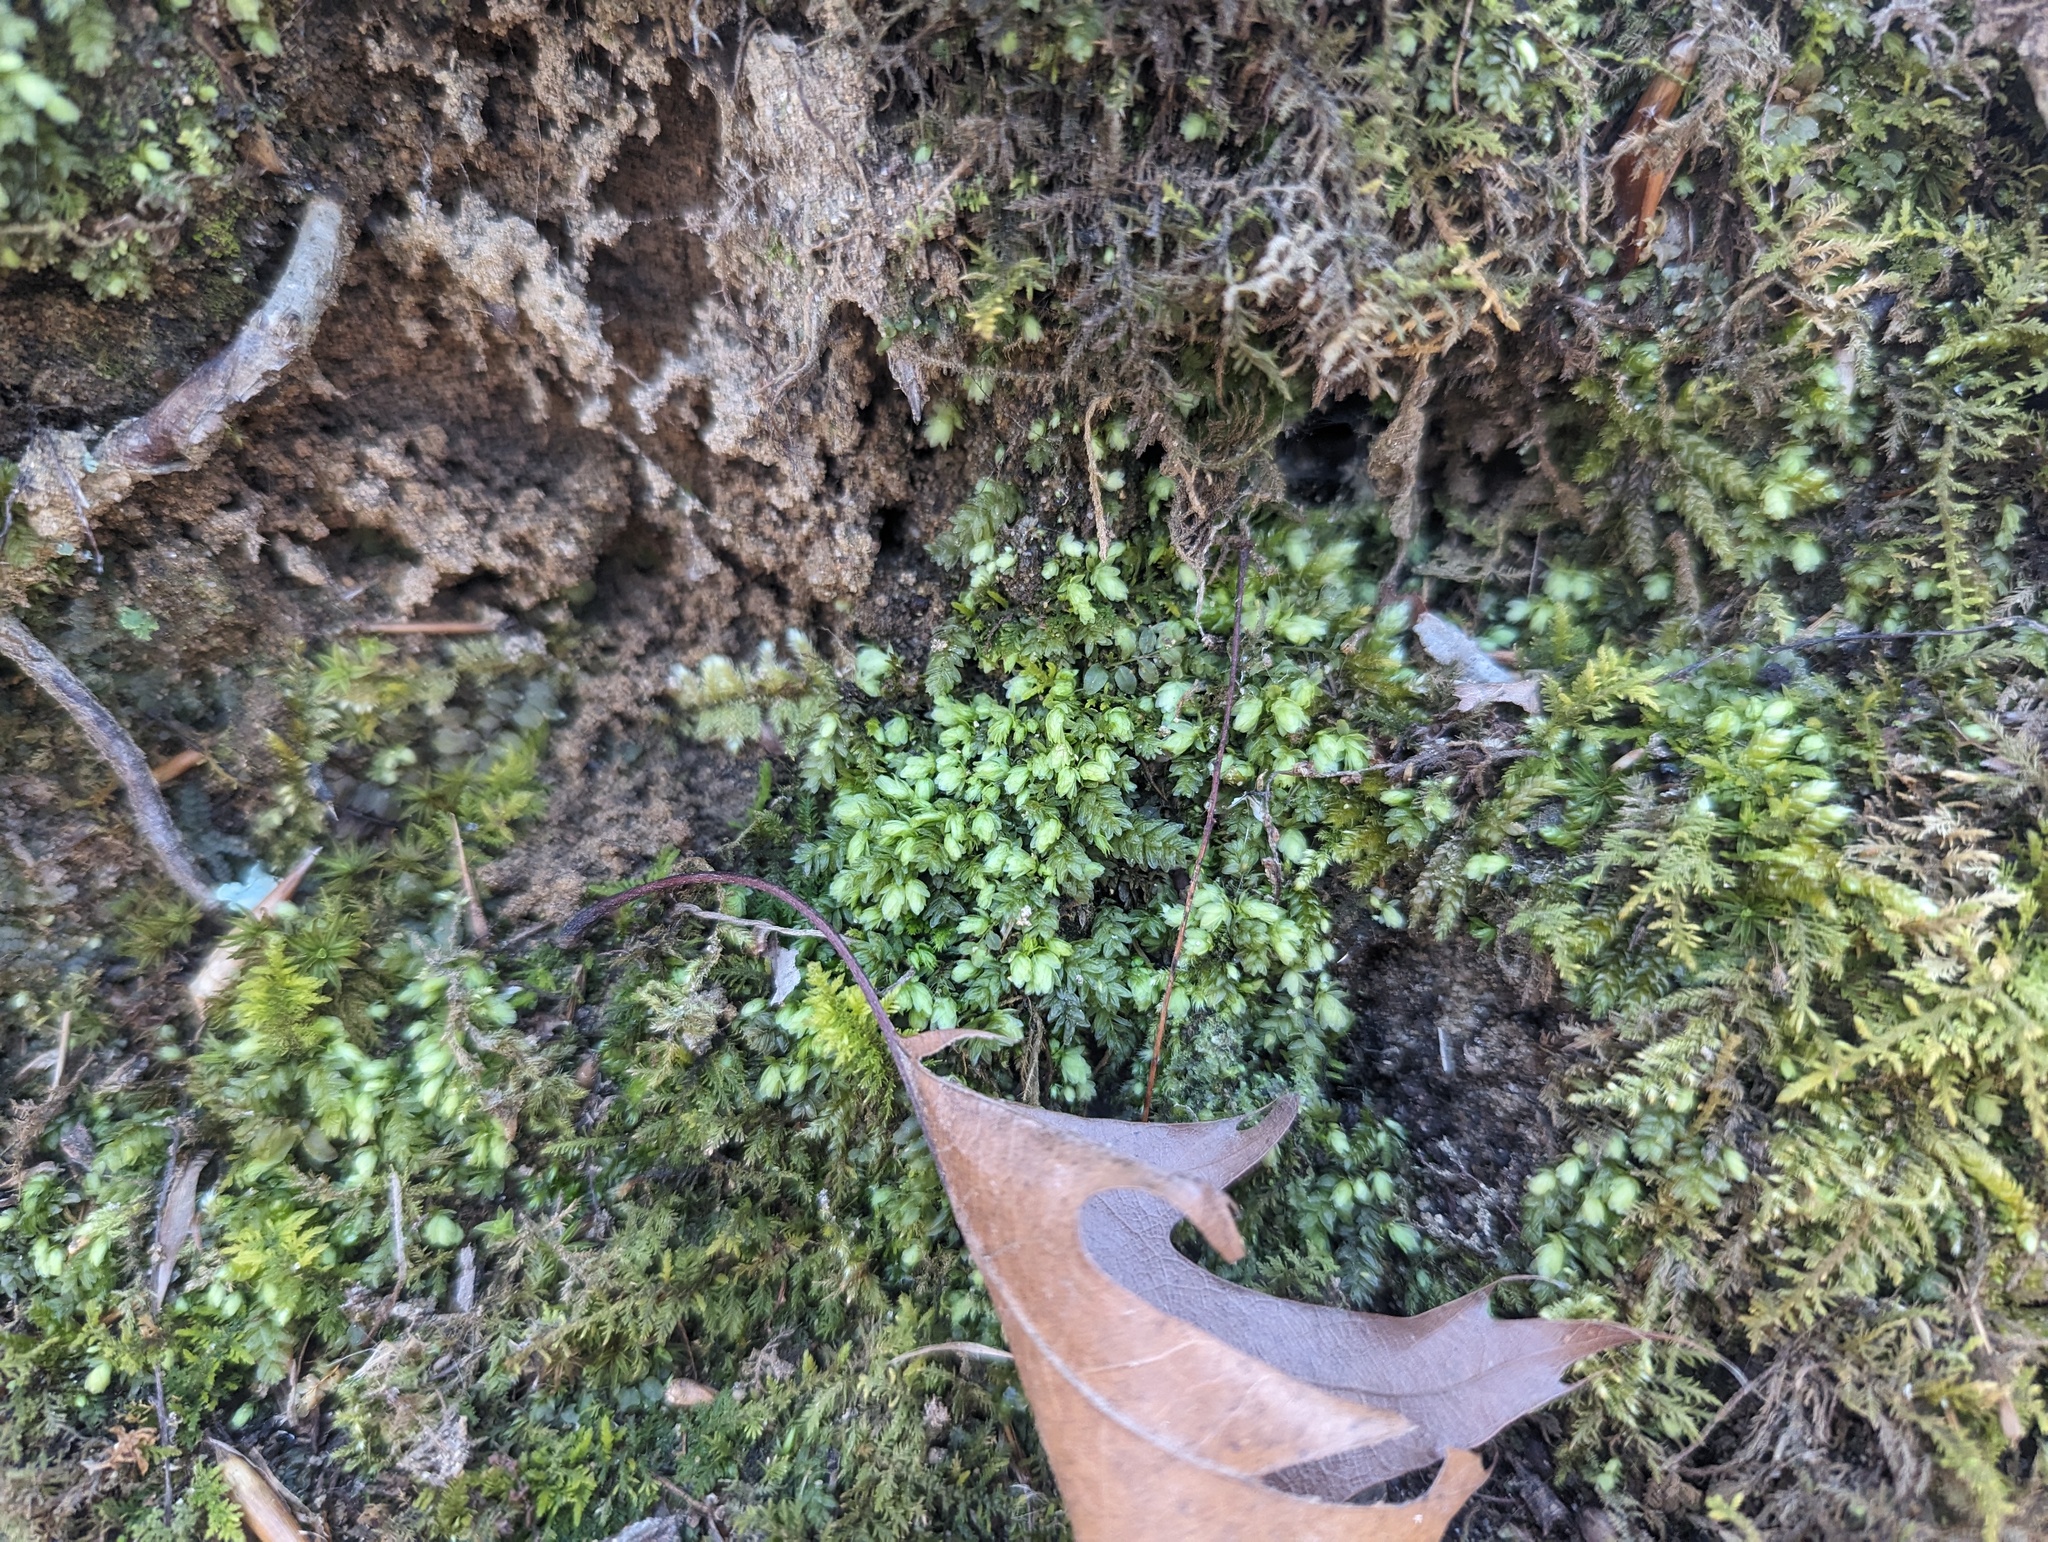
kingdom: Plantae
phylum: Bryophyta
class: Bryopsida
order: Aulacomniales
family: Aulacomniaceae
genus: Aulacomnium
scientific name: Aulacomnium heterostichum
